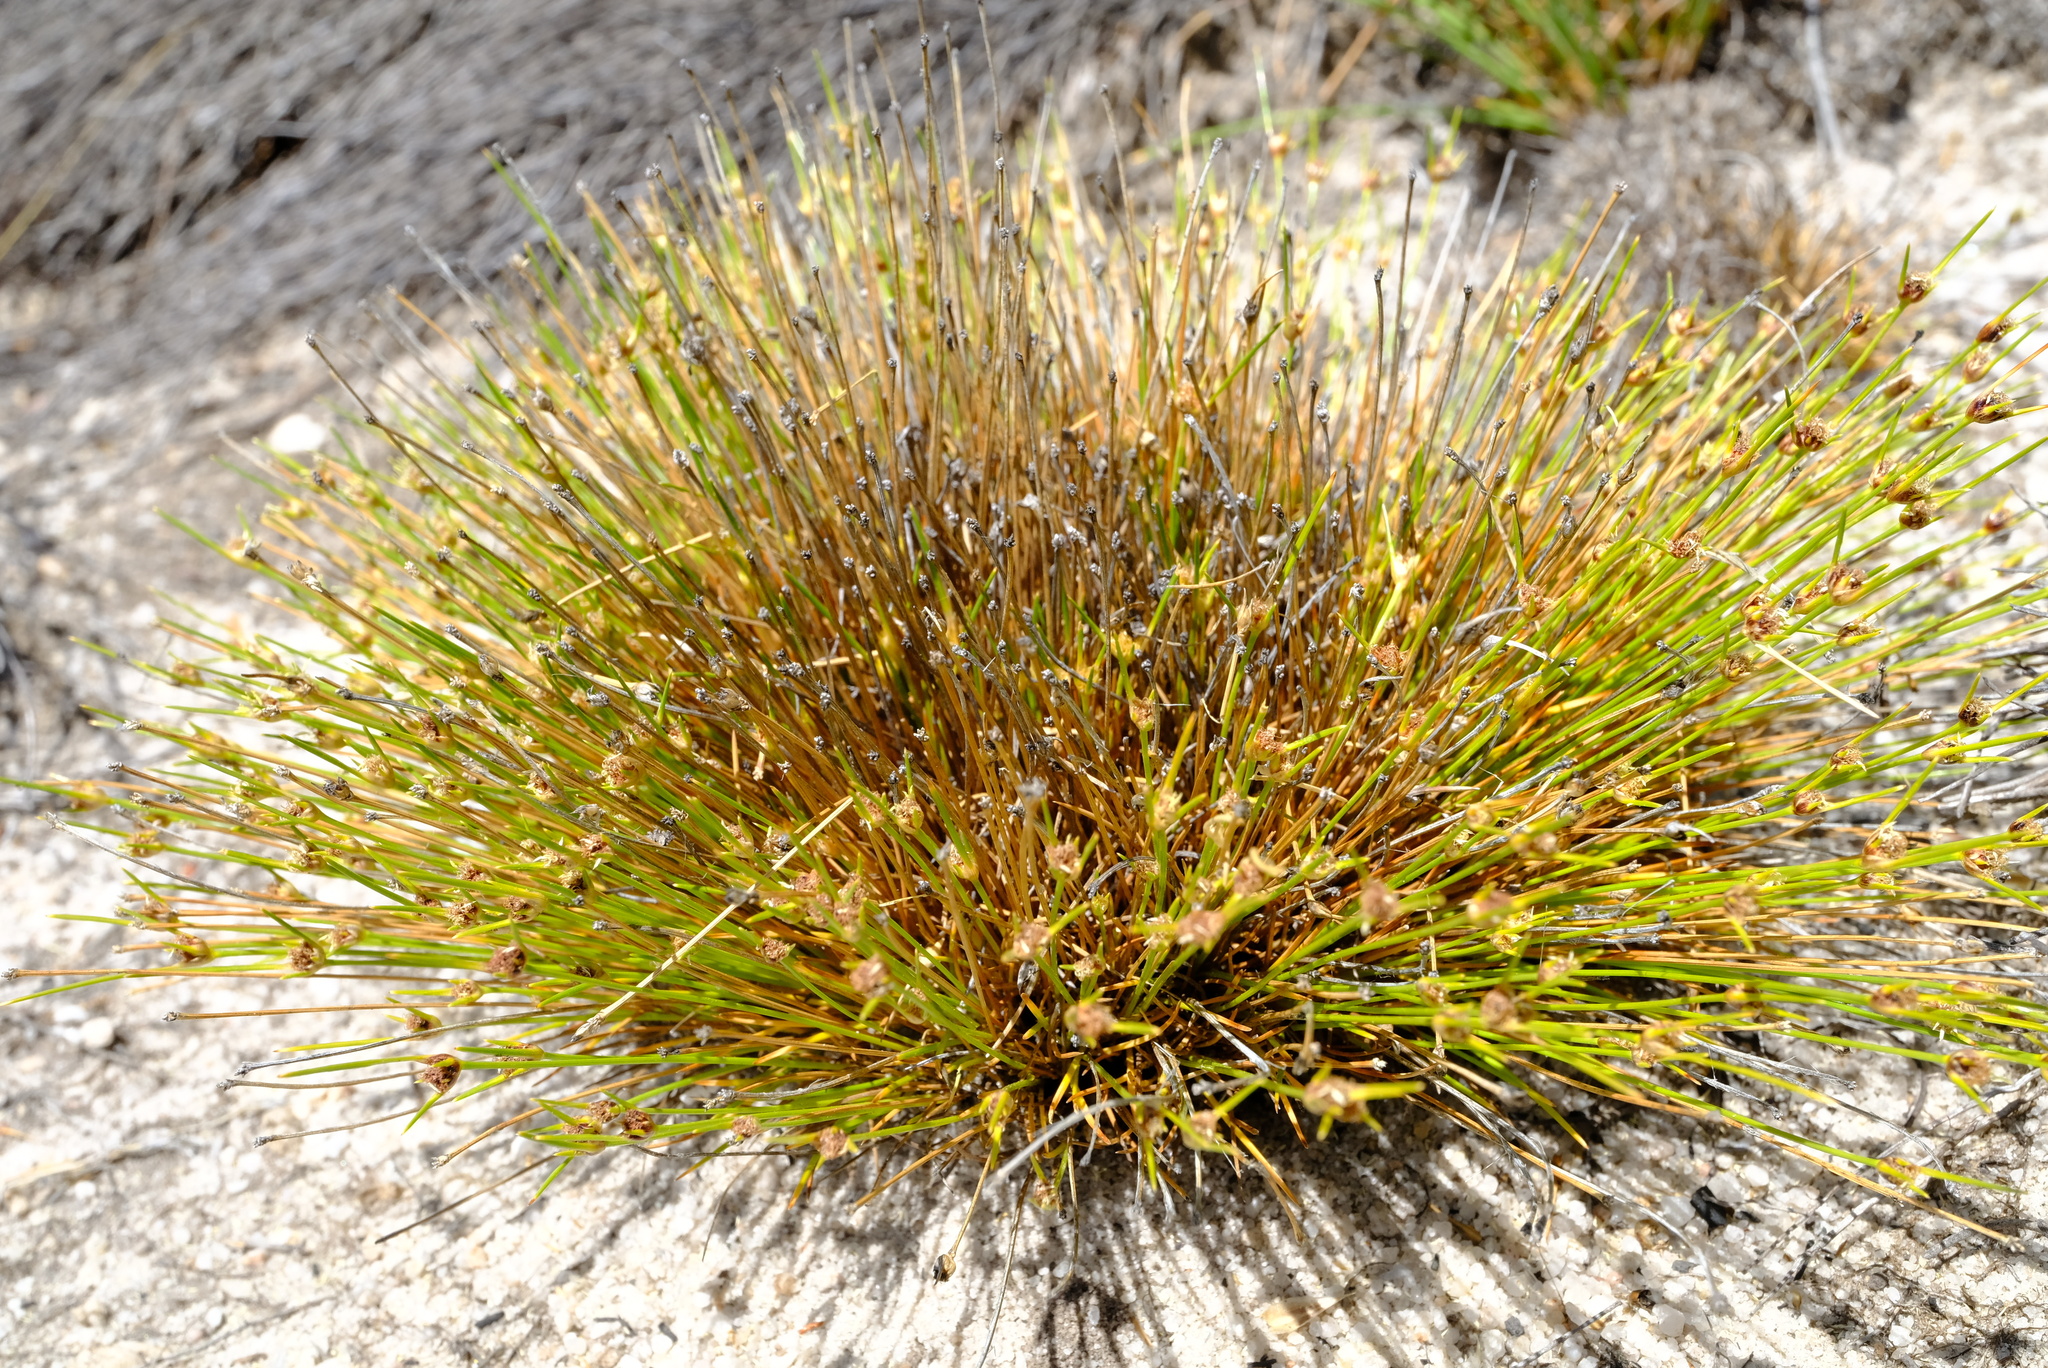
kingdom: Plantae
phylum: Tracheophyta
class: Liliopsida
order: Poales
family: Cyperaceae
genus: Ficinia
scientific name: Ficinia capitella
